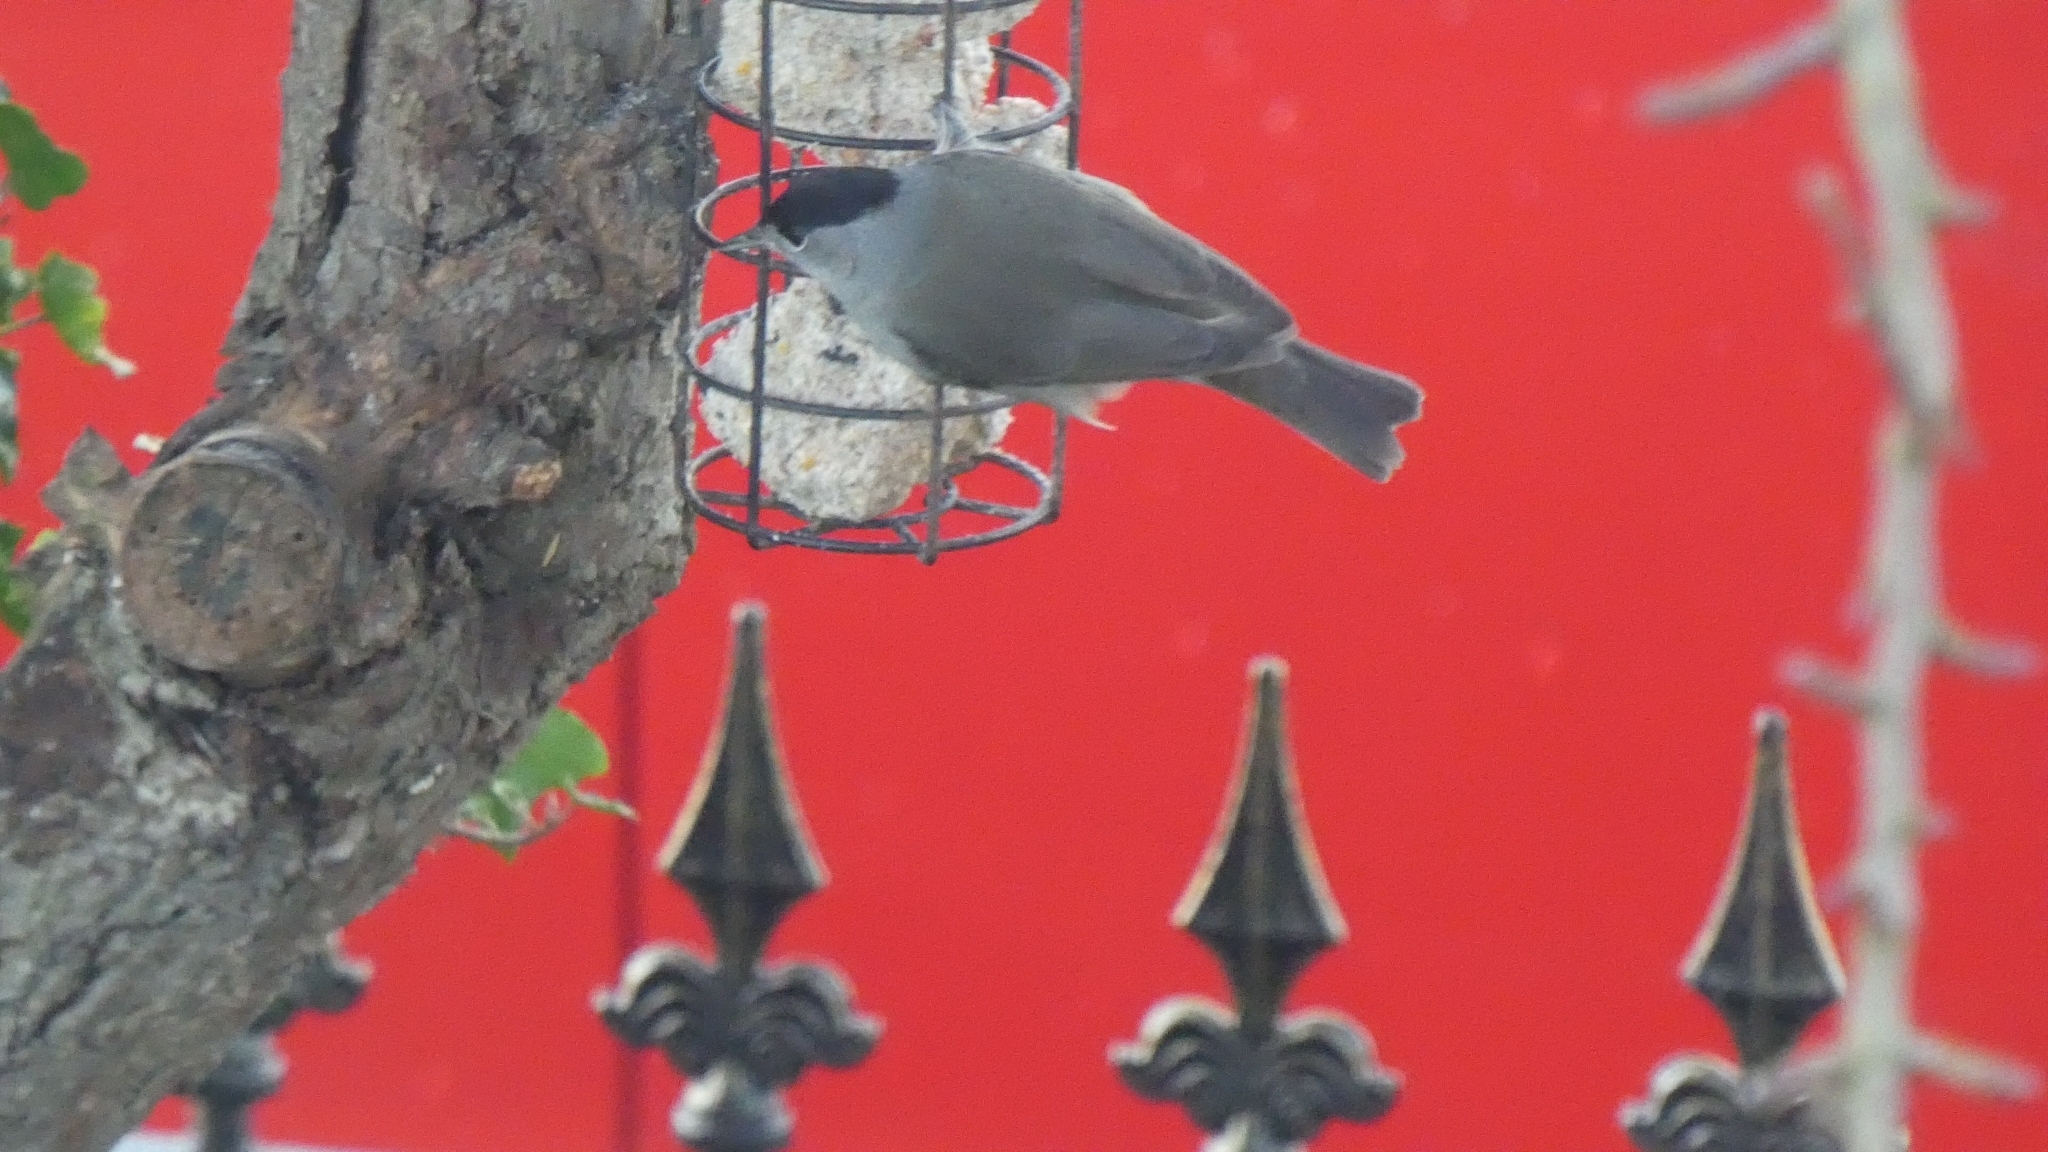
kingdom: Animalia
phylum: Chordata
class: Aves
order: Passeriformes
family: Sylviidae
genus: Sylvia
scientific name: Sylvia atricapilla
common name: Eurasian blackcap
